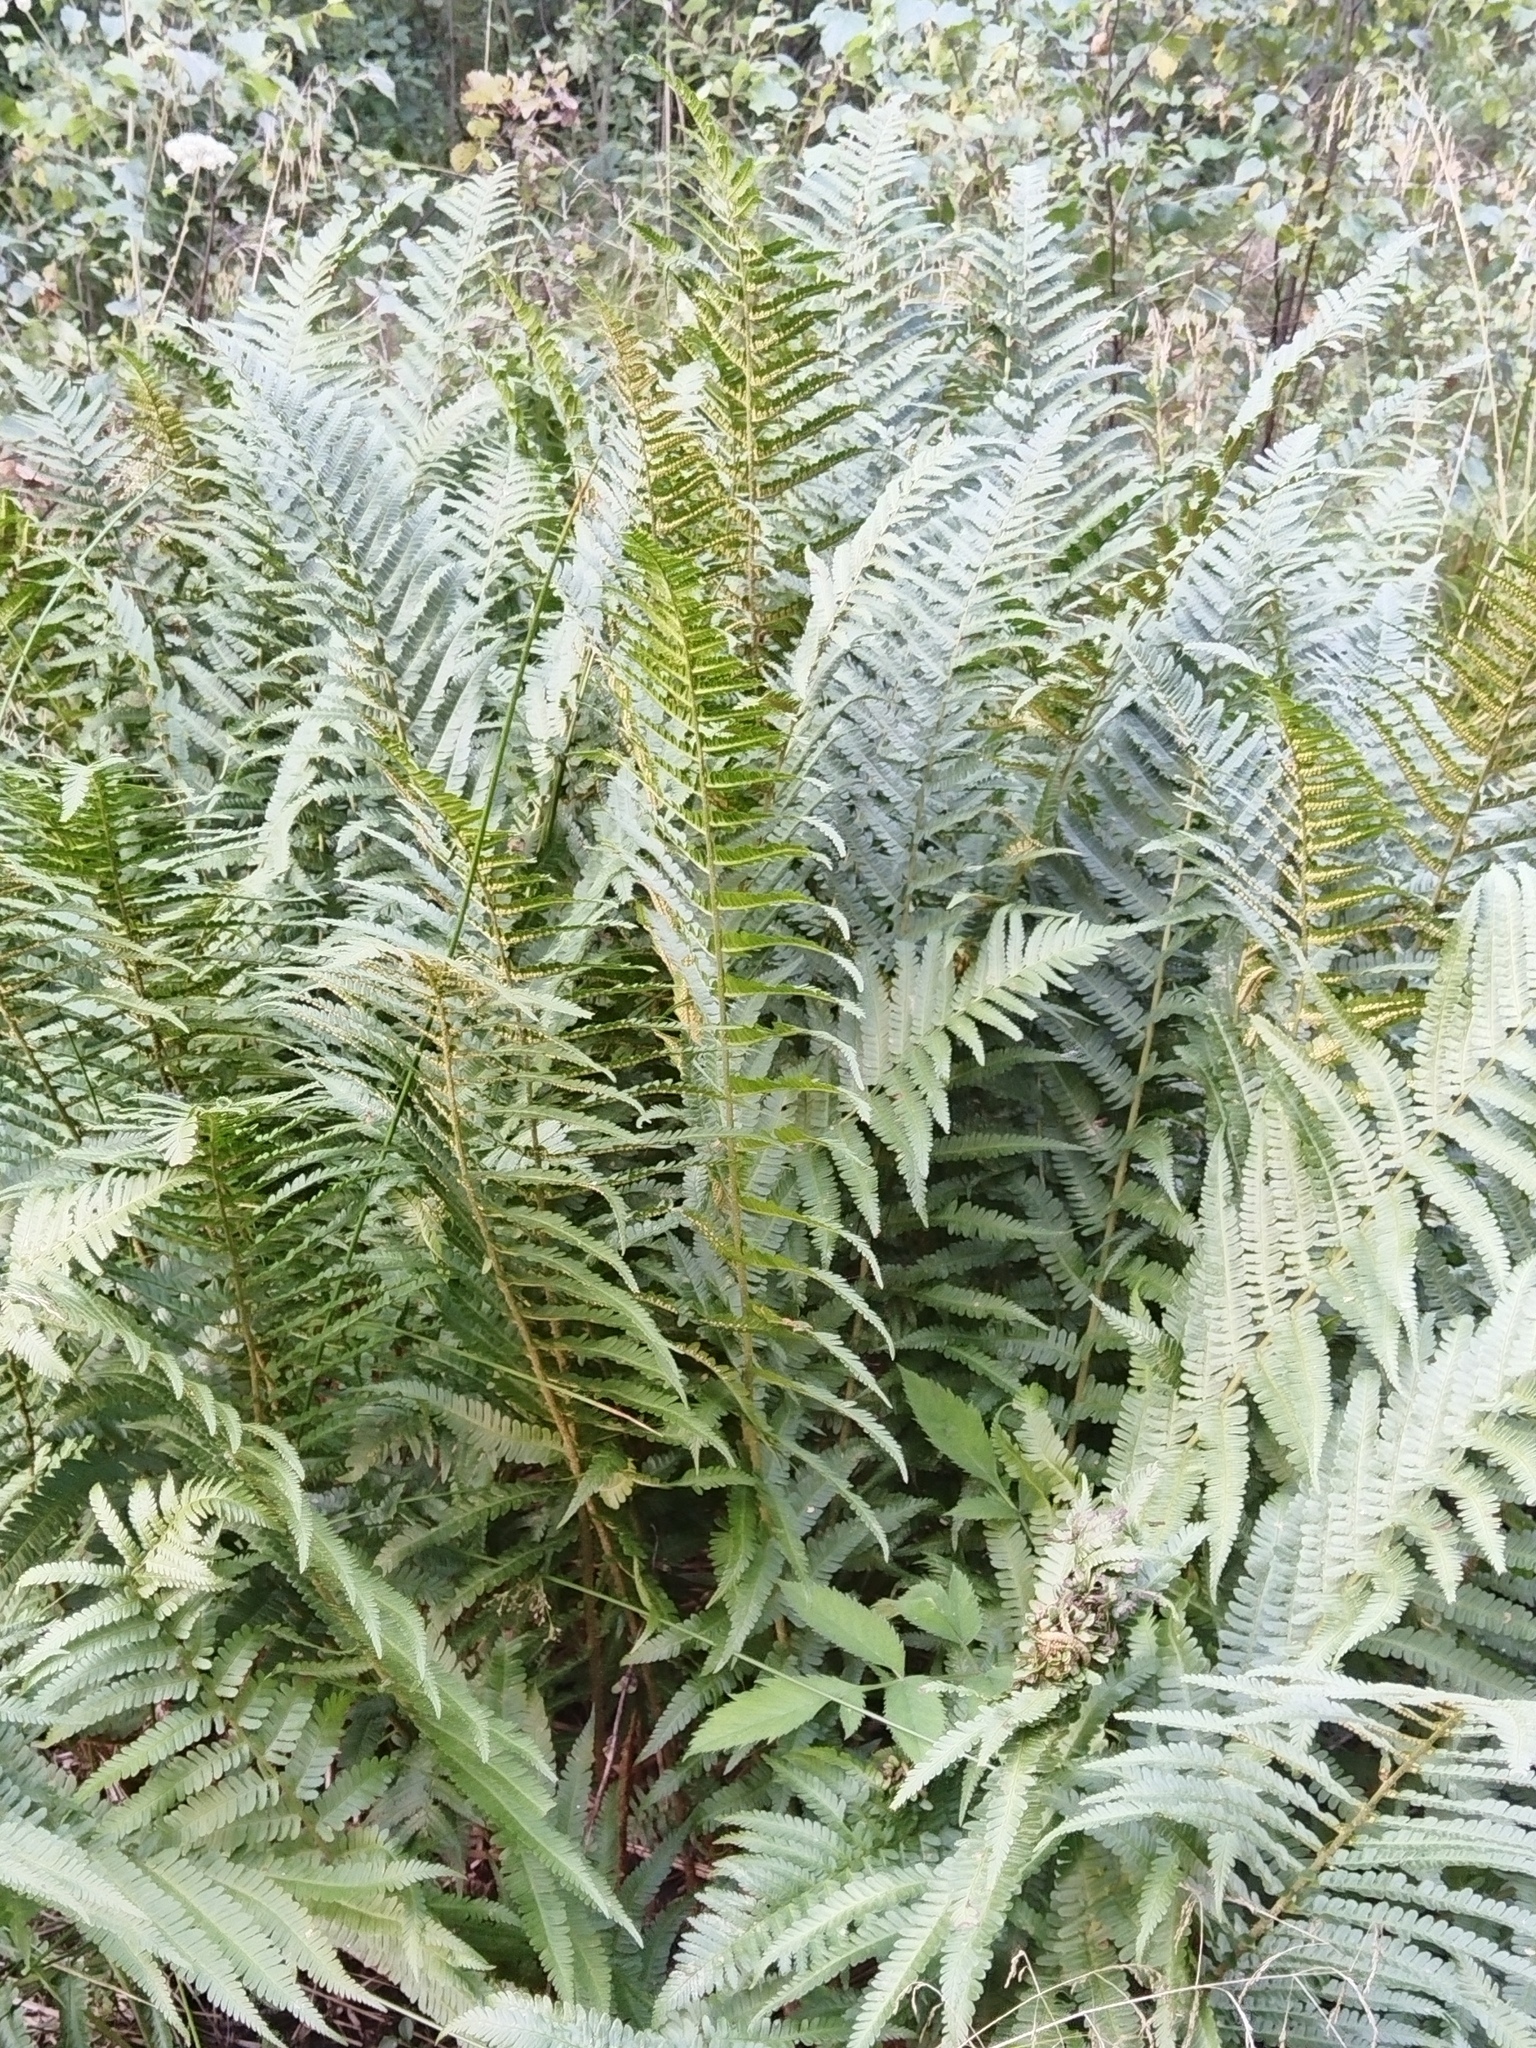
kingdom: Plantae
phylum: Tracheophyta
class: Polypodiopsida
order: Polypodiales
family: Dryopteridaceae
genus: Dryopteris
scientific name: Dryopteris filix-mas
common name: Male fern
